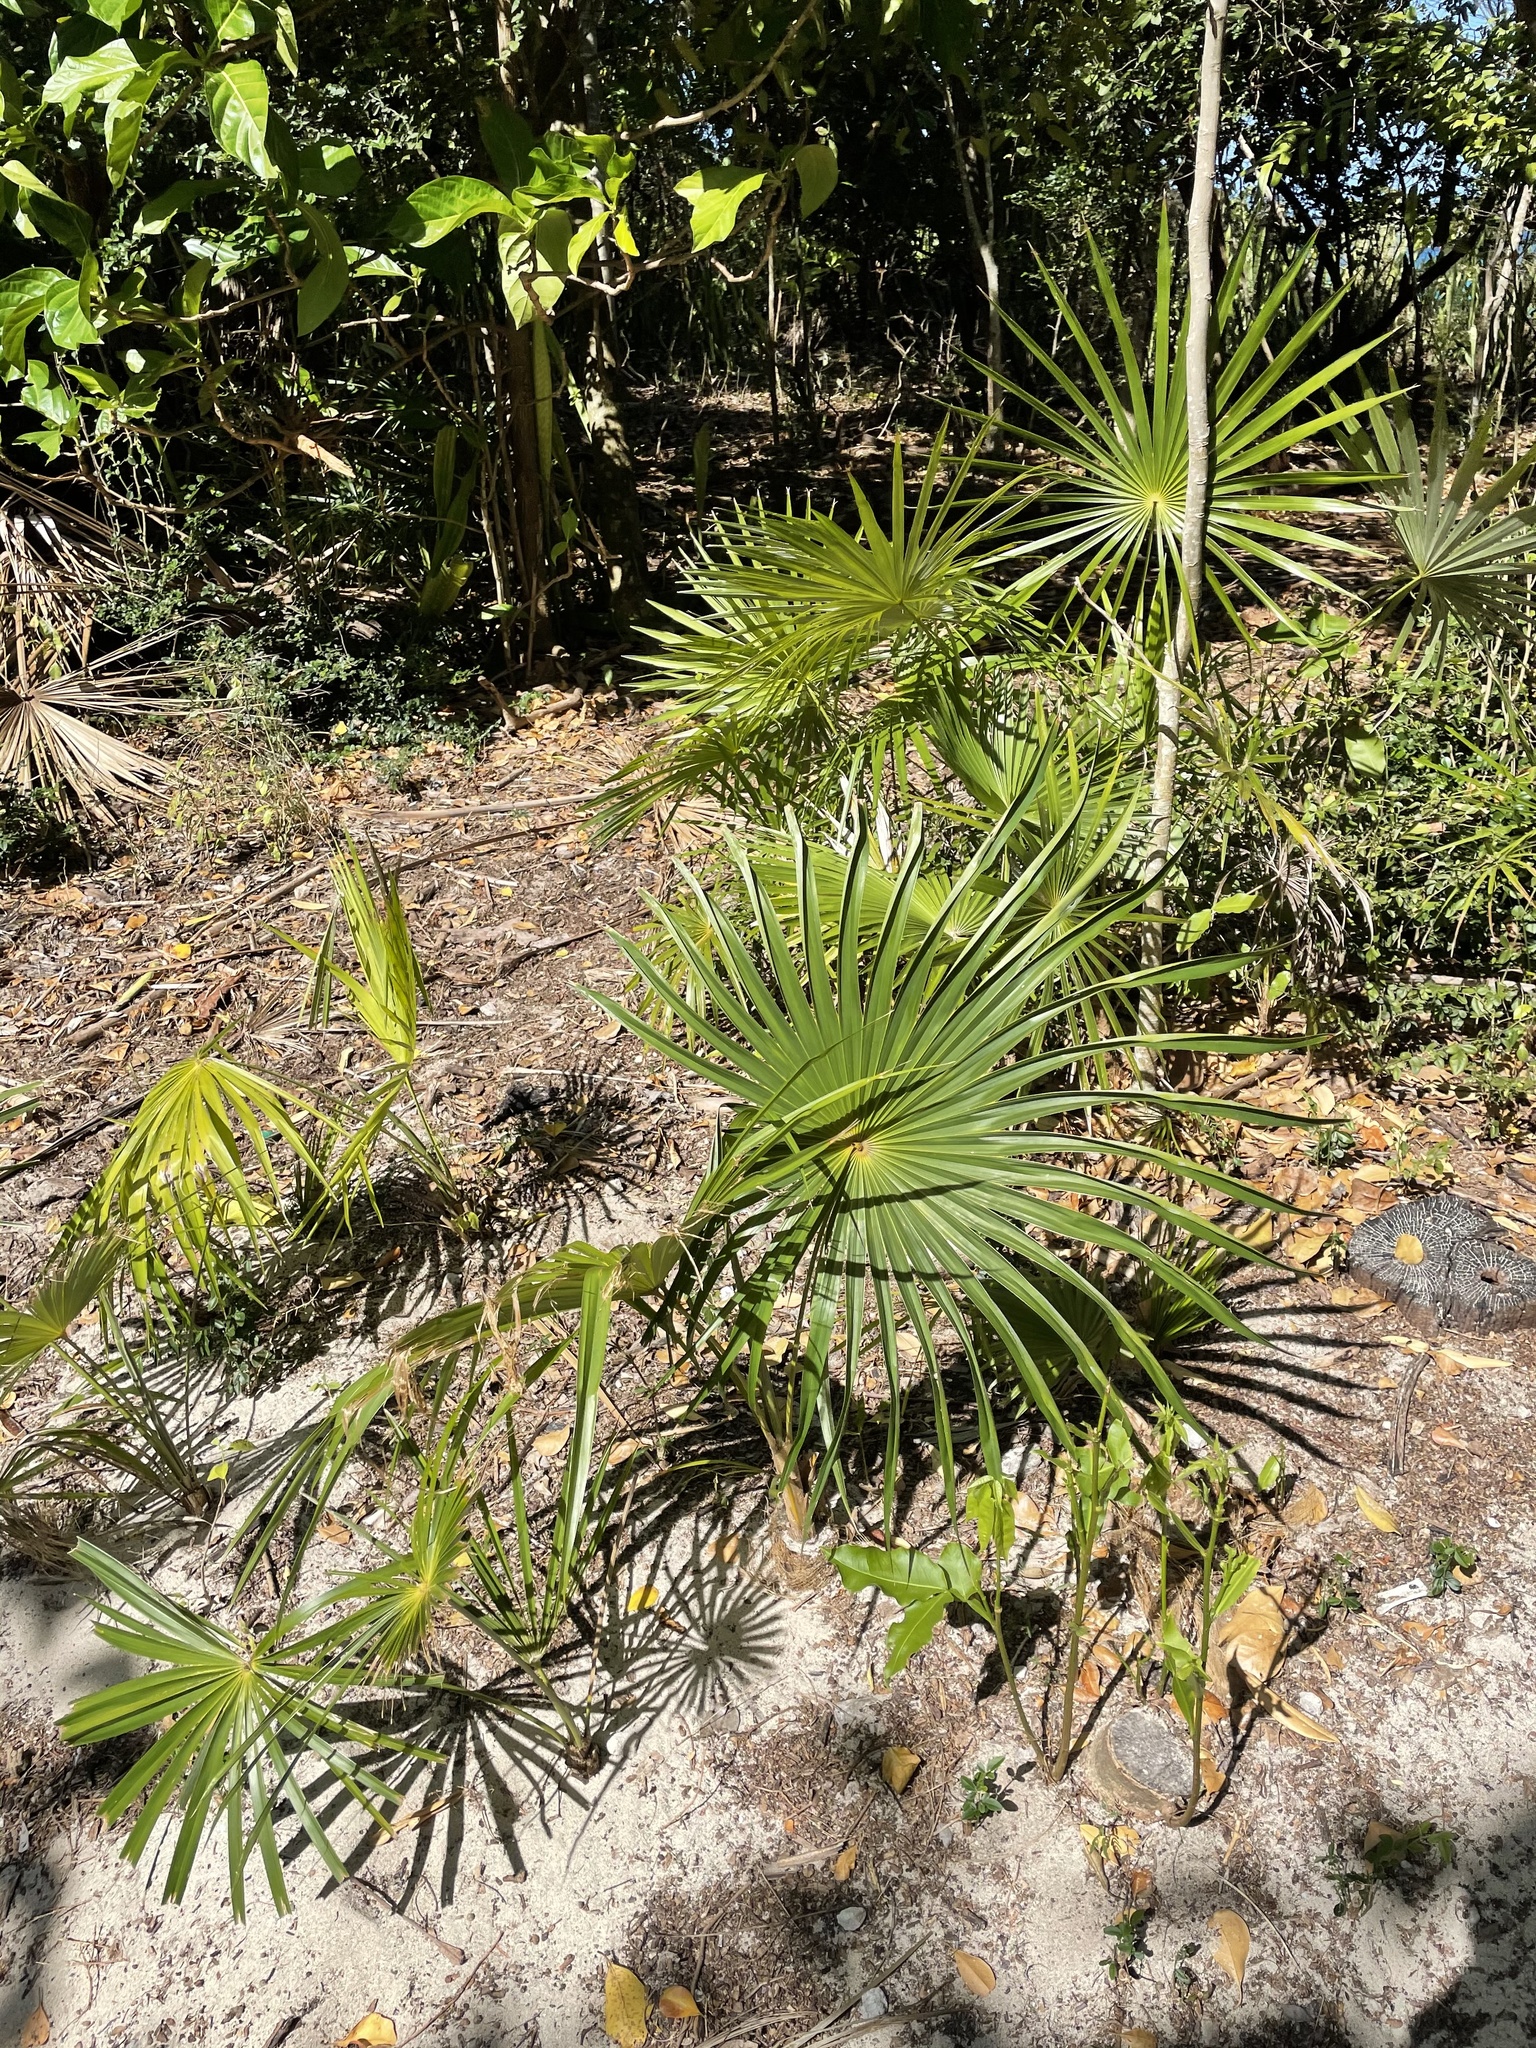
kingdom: Plantae
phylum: Tracheophyta
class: Liliopsida
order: Arecales
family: Arecaceae
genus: Thrinax
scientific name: Thrinax radiata
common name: Florida thatch
